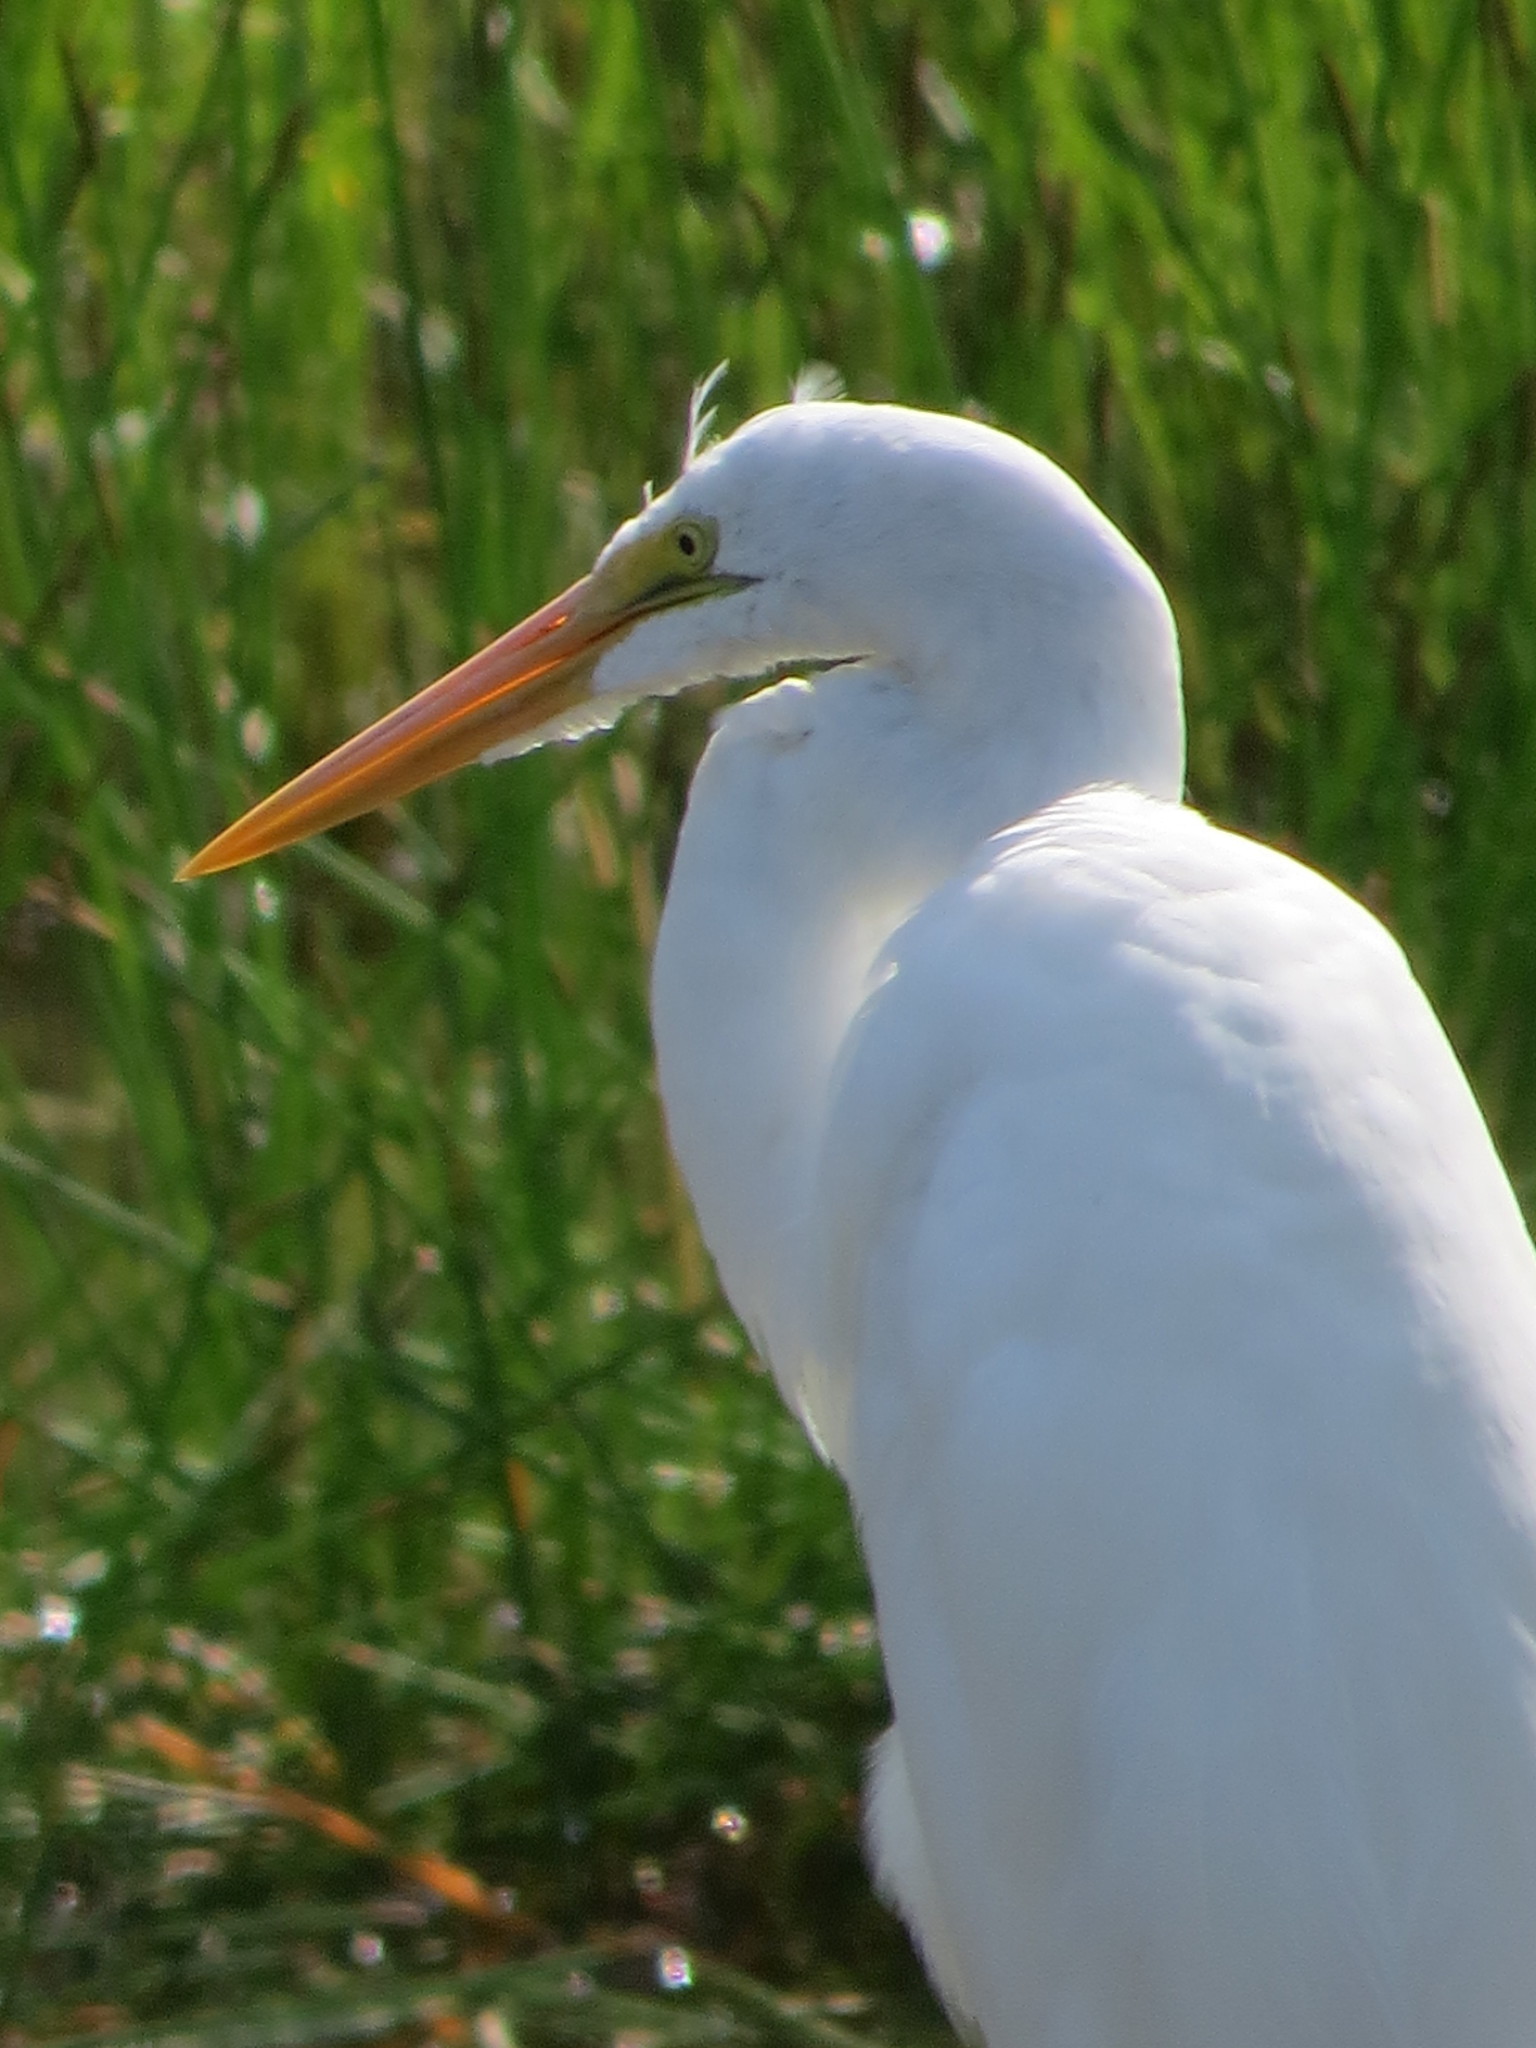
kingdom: Animalia
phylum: Chordata
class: Aves
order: Pelecaniformes
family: Ardeidae
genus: Ardea
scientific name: Ardea alba
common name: Great egret
